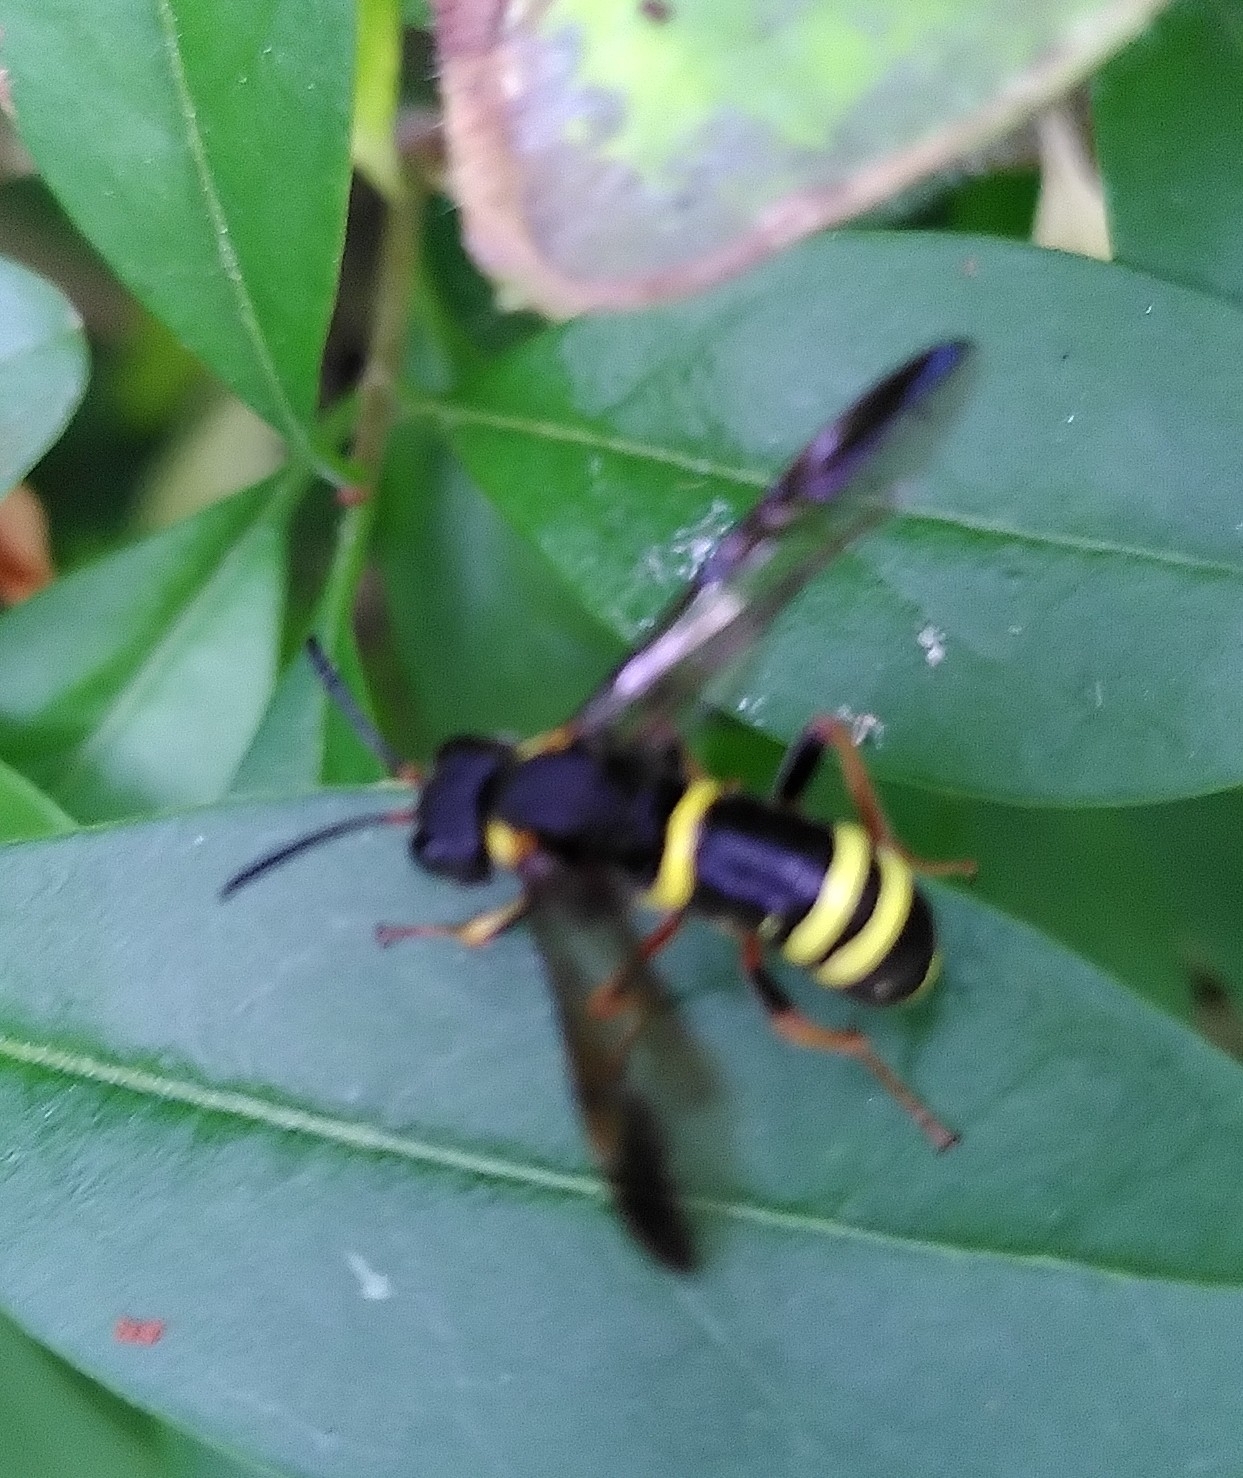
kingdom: Animalia
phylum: Arthropoda
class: Insecta
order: Hymenoptera
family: Tenthredinidae
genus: Tenthredo
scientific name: Tenthredo vespa
